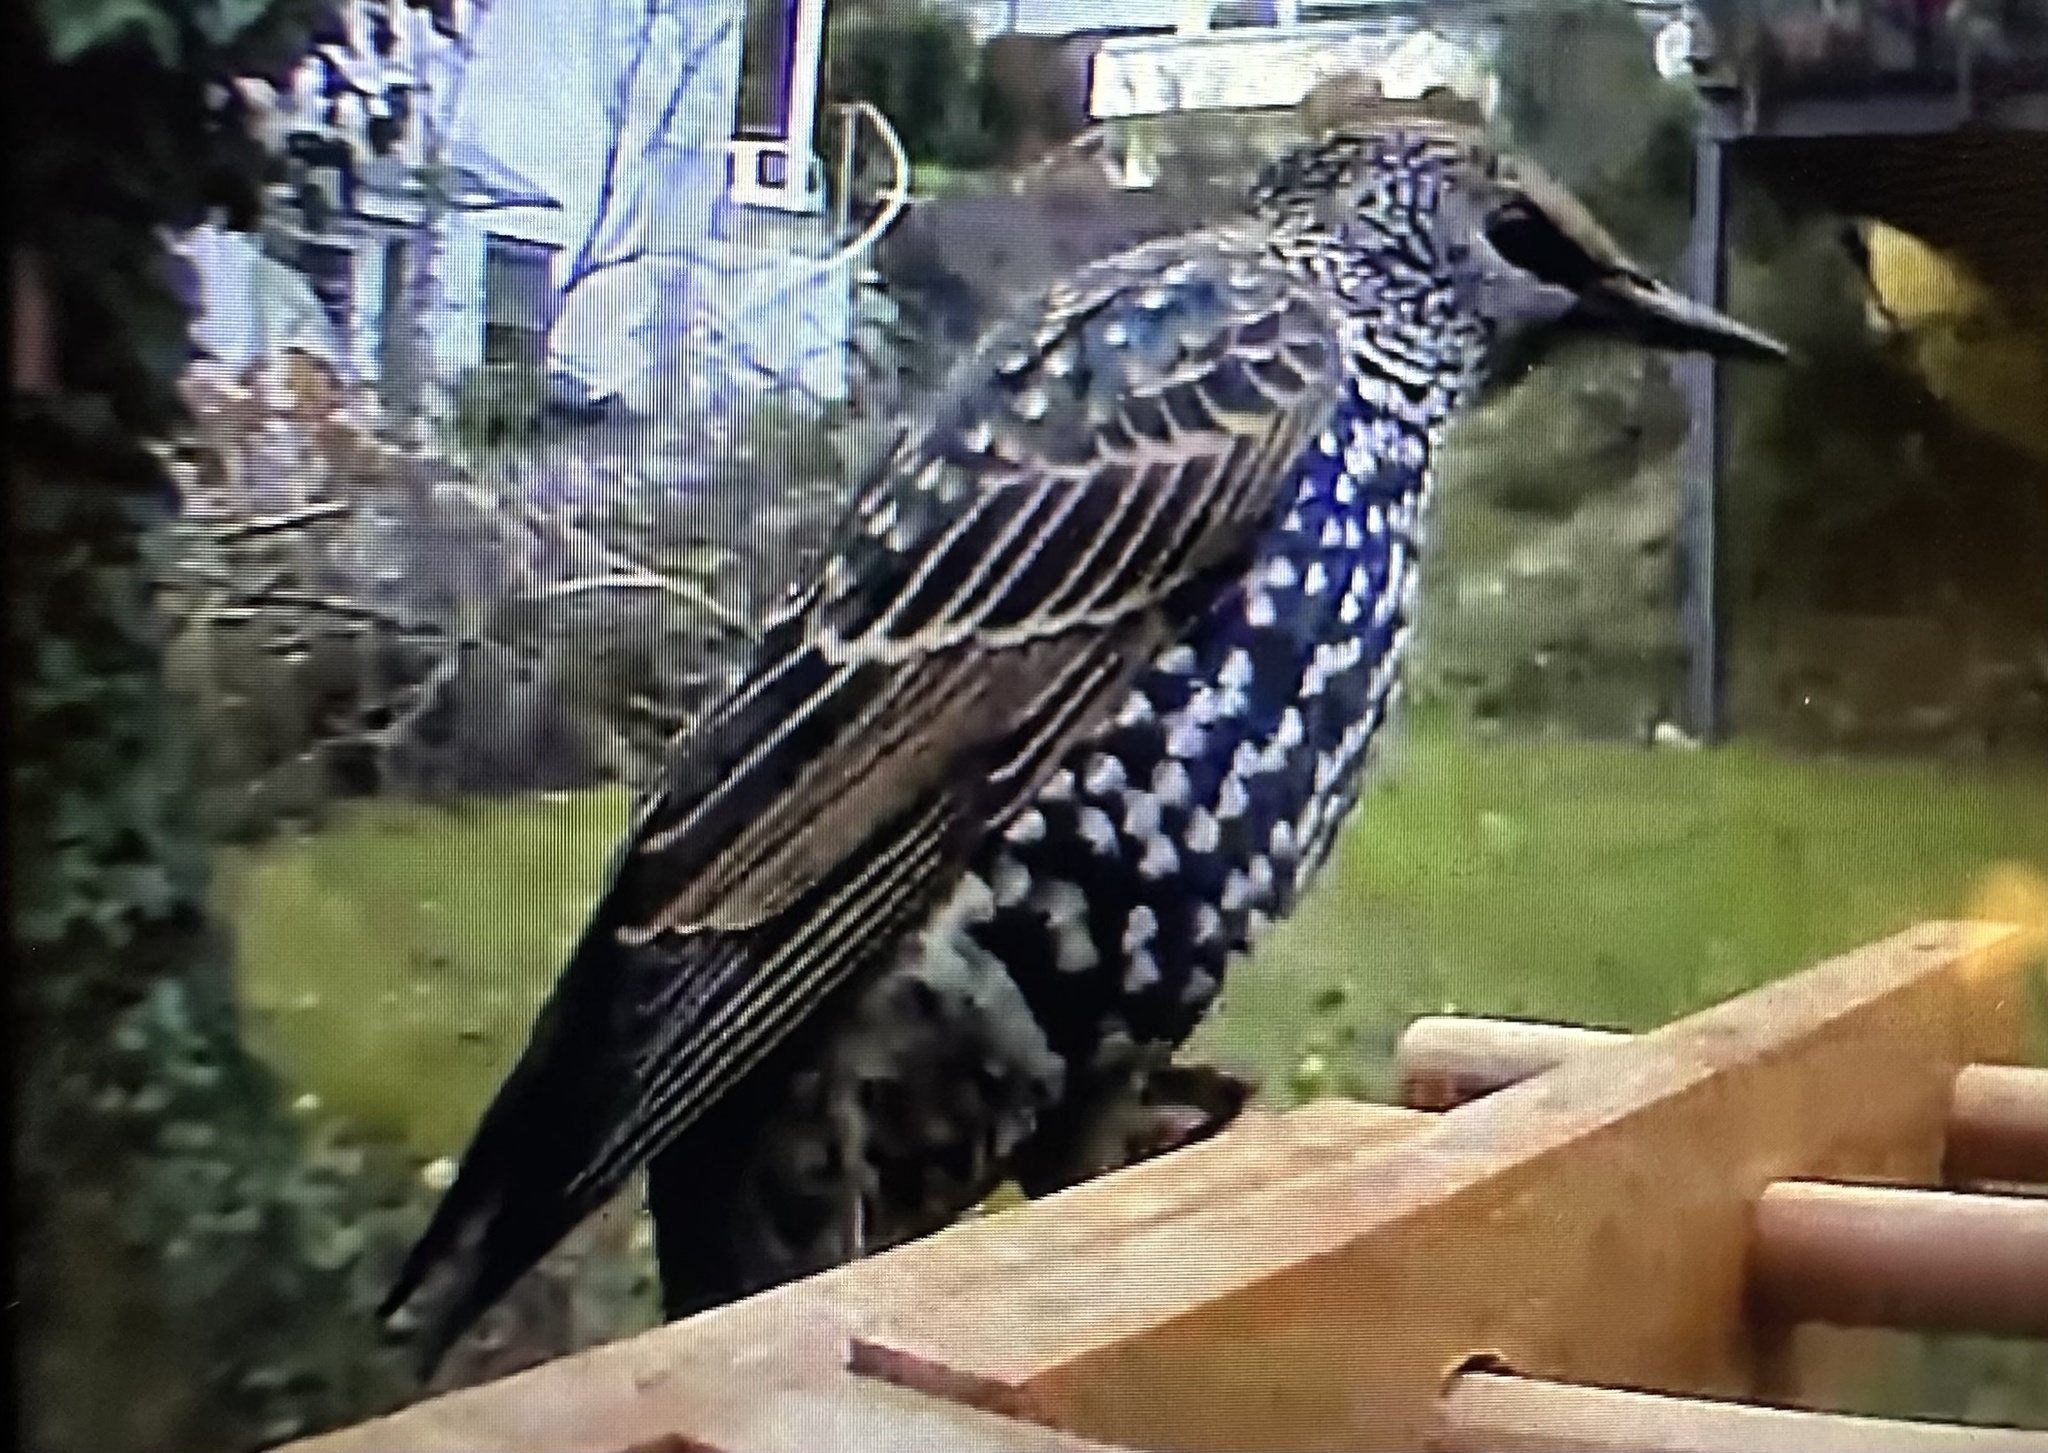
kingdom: Animalia
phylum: Chordata
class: Aves
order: Passeriformes
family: Sturnidae
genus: Sturnus
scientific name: Sturnus vulgaris
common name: Common starling
